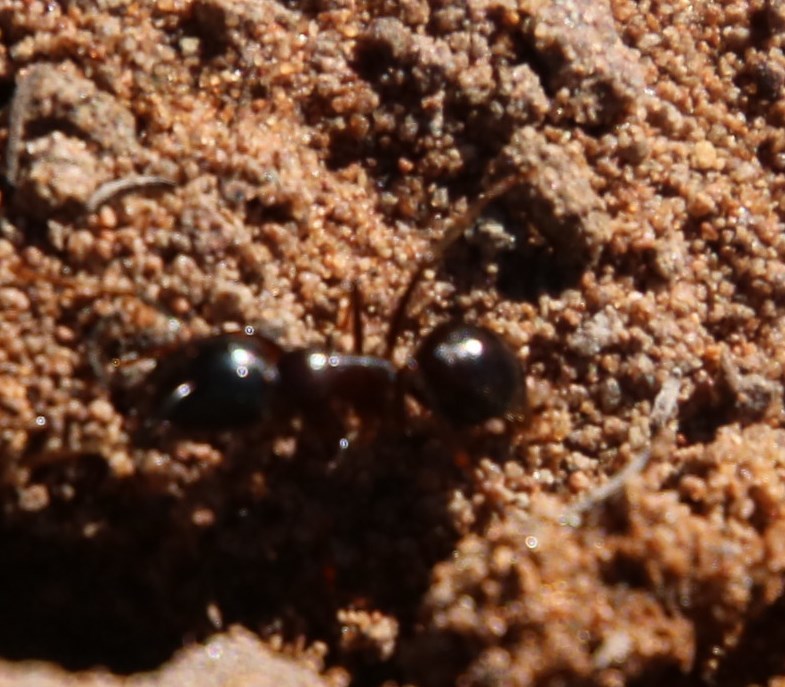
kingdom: Animalia
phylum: Arthropoda
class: Insecta
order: Hymenoptera
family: Formicidae
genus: Camponotus
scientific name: Camponotus thales
